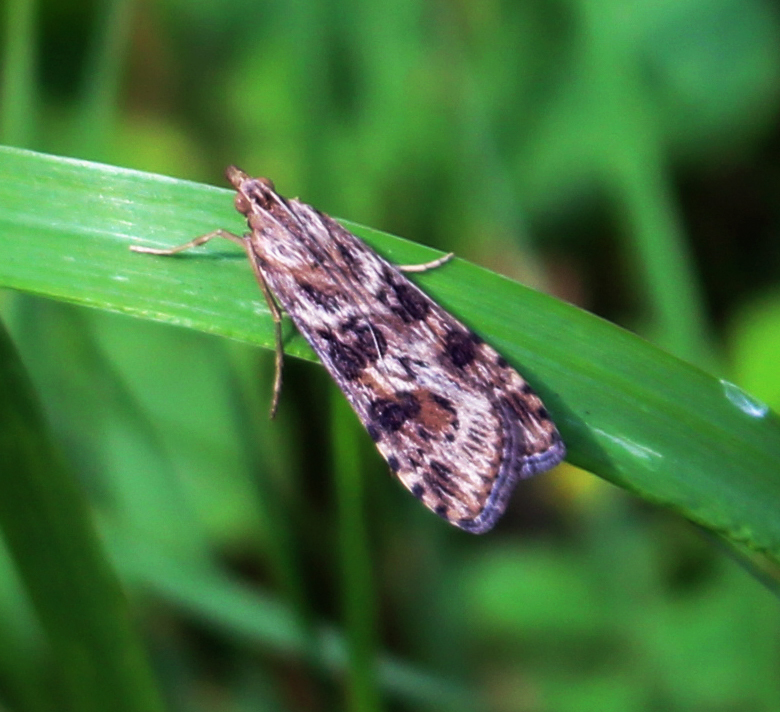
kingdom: Animalia
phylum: Arthropoda
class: Insecta
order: Lepidoptera
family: Crambidae
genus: Nomophila
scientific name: Nomophila nearctica
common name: American rush veneer
